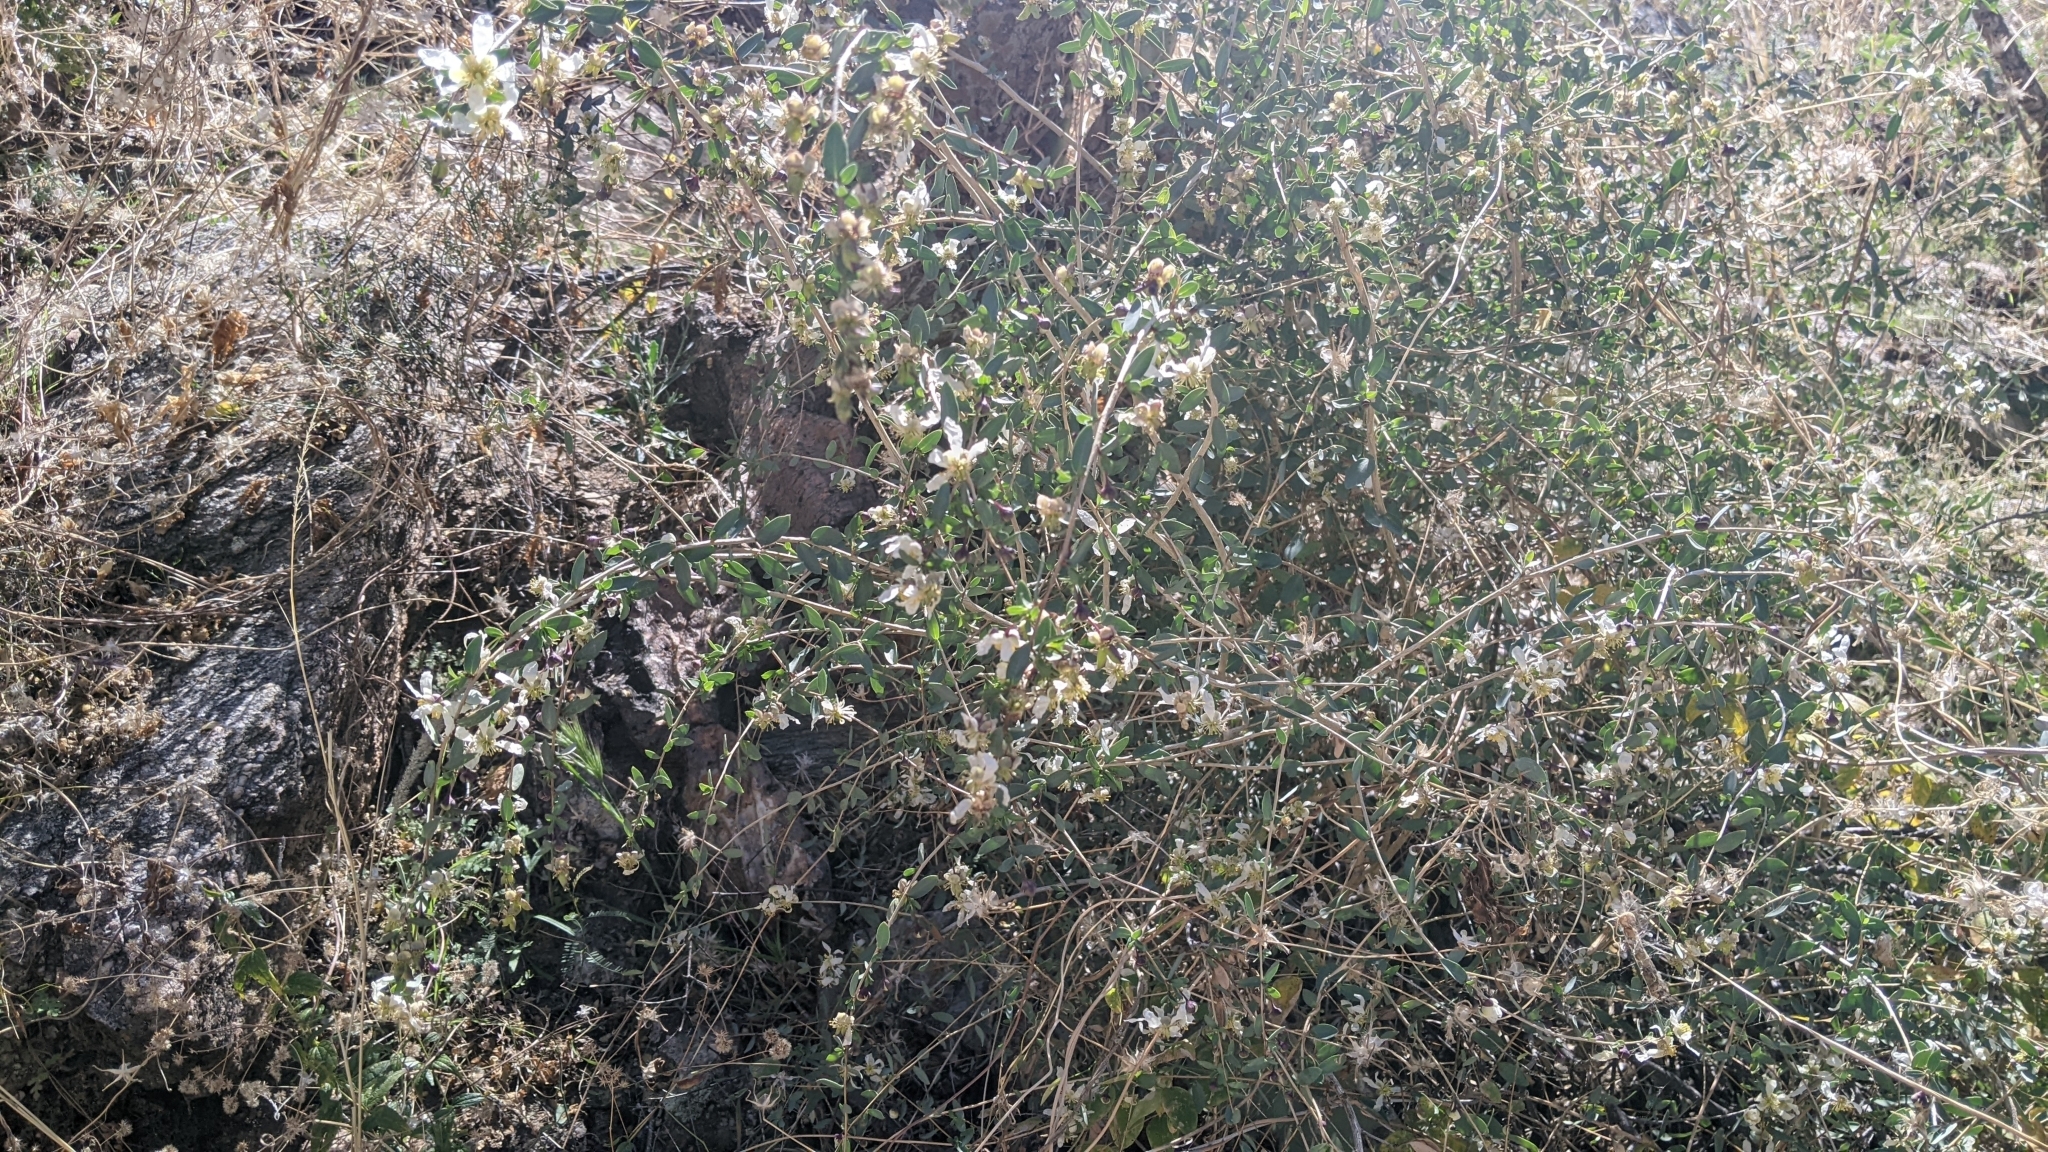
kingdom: Plantae
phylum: Tracheophyta
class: Magnoliopsida
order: Crossosomatales
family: Crossosomataceae
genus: Crossosoma
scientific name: Crossosoma bigelovii
